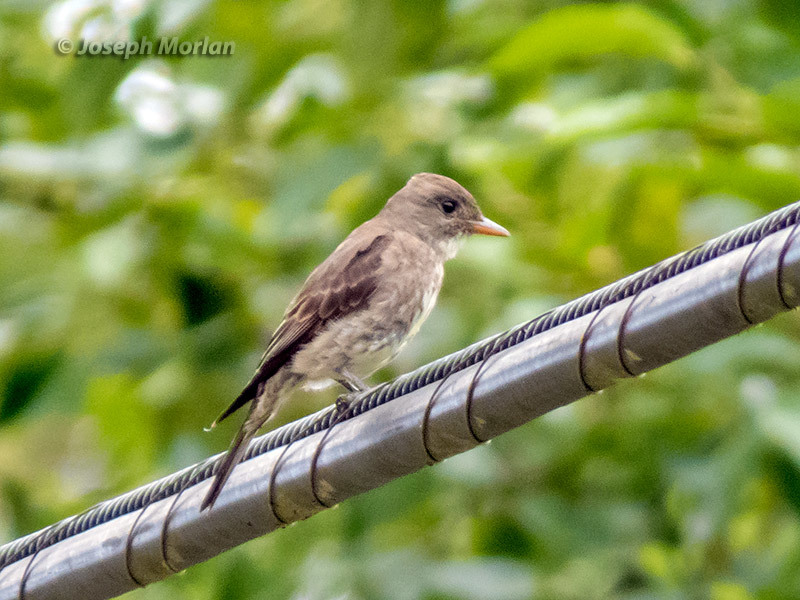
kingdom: Animalia
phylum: Chordata
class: Aves
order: Passeriformes
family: Tyrannidae
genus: Contopus
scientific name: Contopus cooperi
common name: Olive-sided flycatcher
